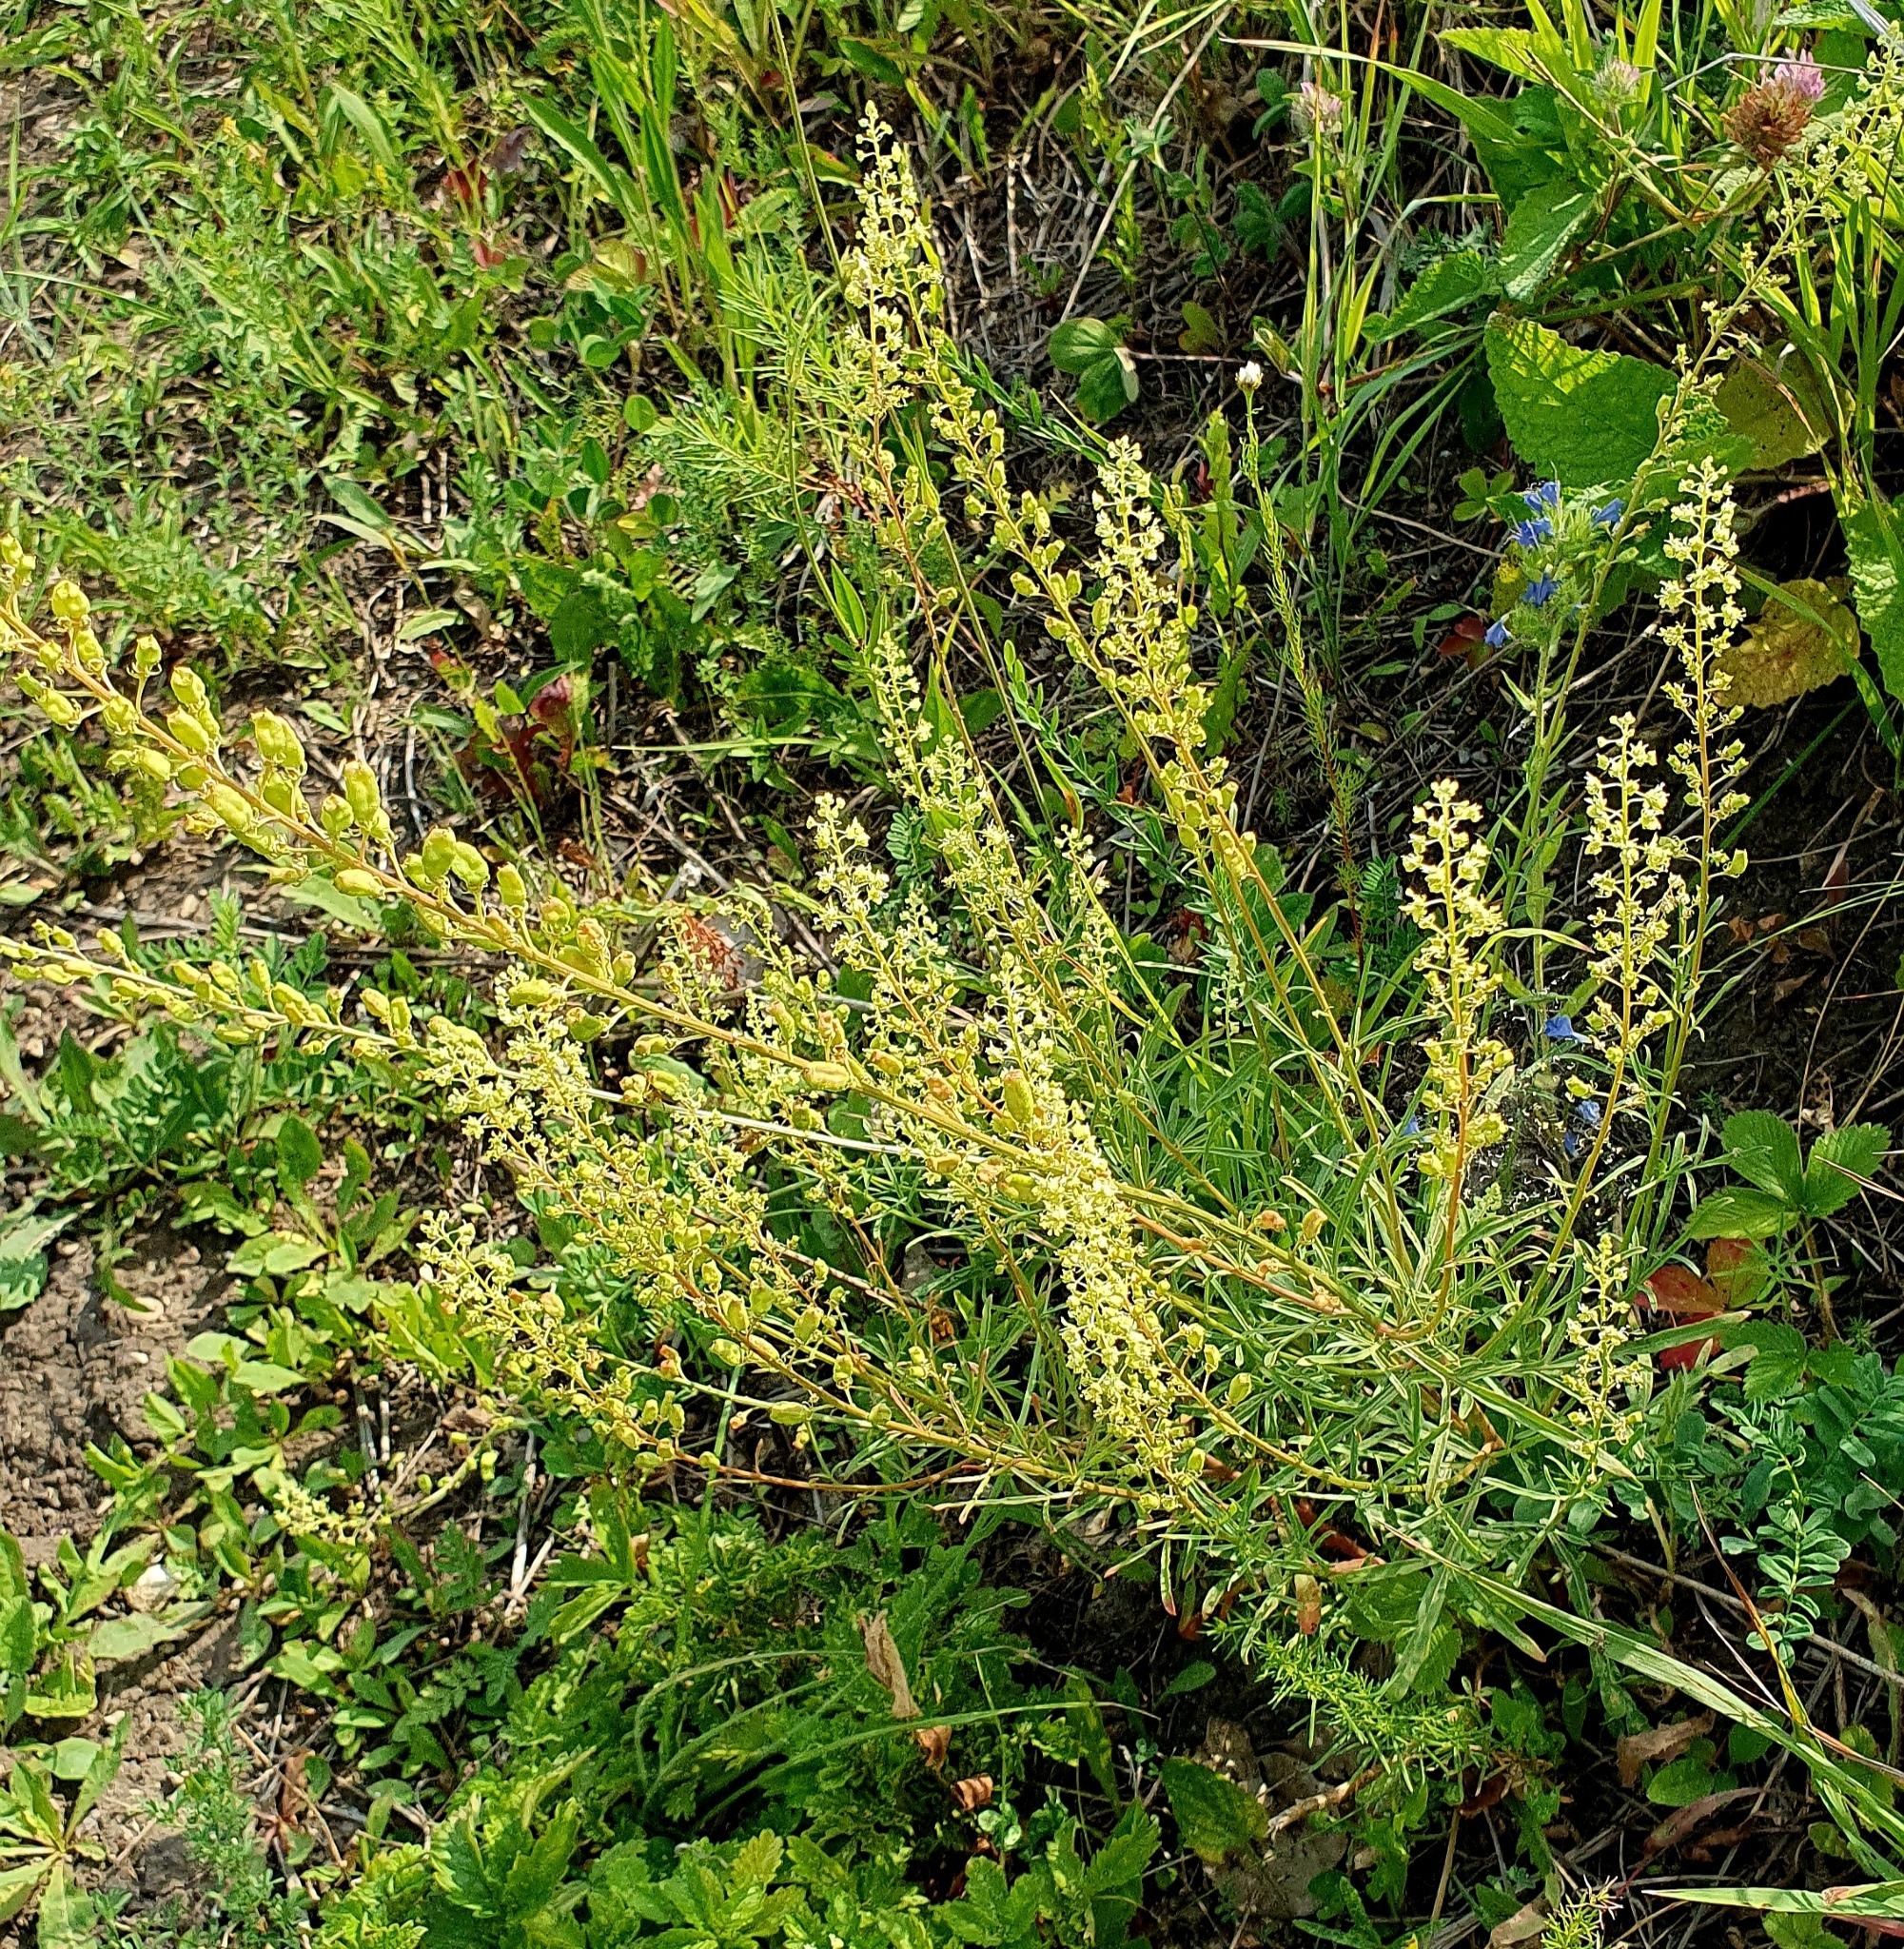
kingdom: Plantae
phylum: Tracheophyta
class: Magnoliopsida
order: Brassicales
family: Resedaceae
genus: Reseda
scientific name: Reseda lutea
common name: Wild mignonette
